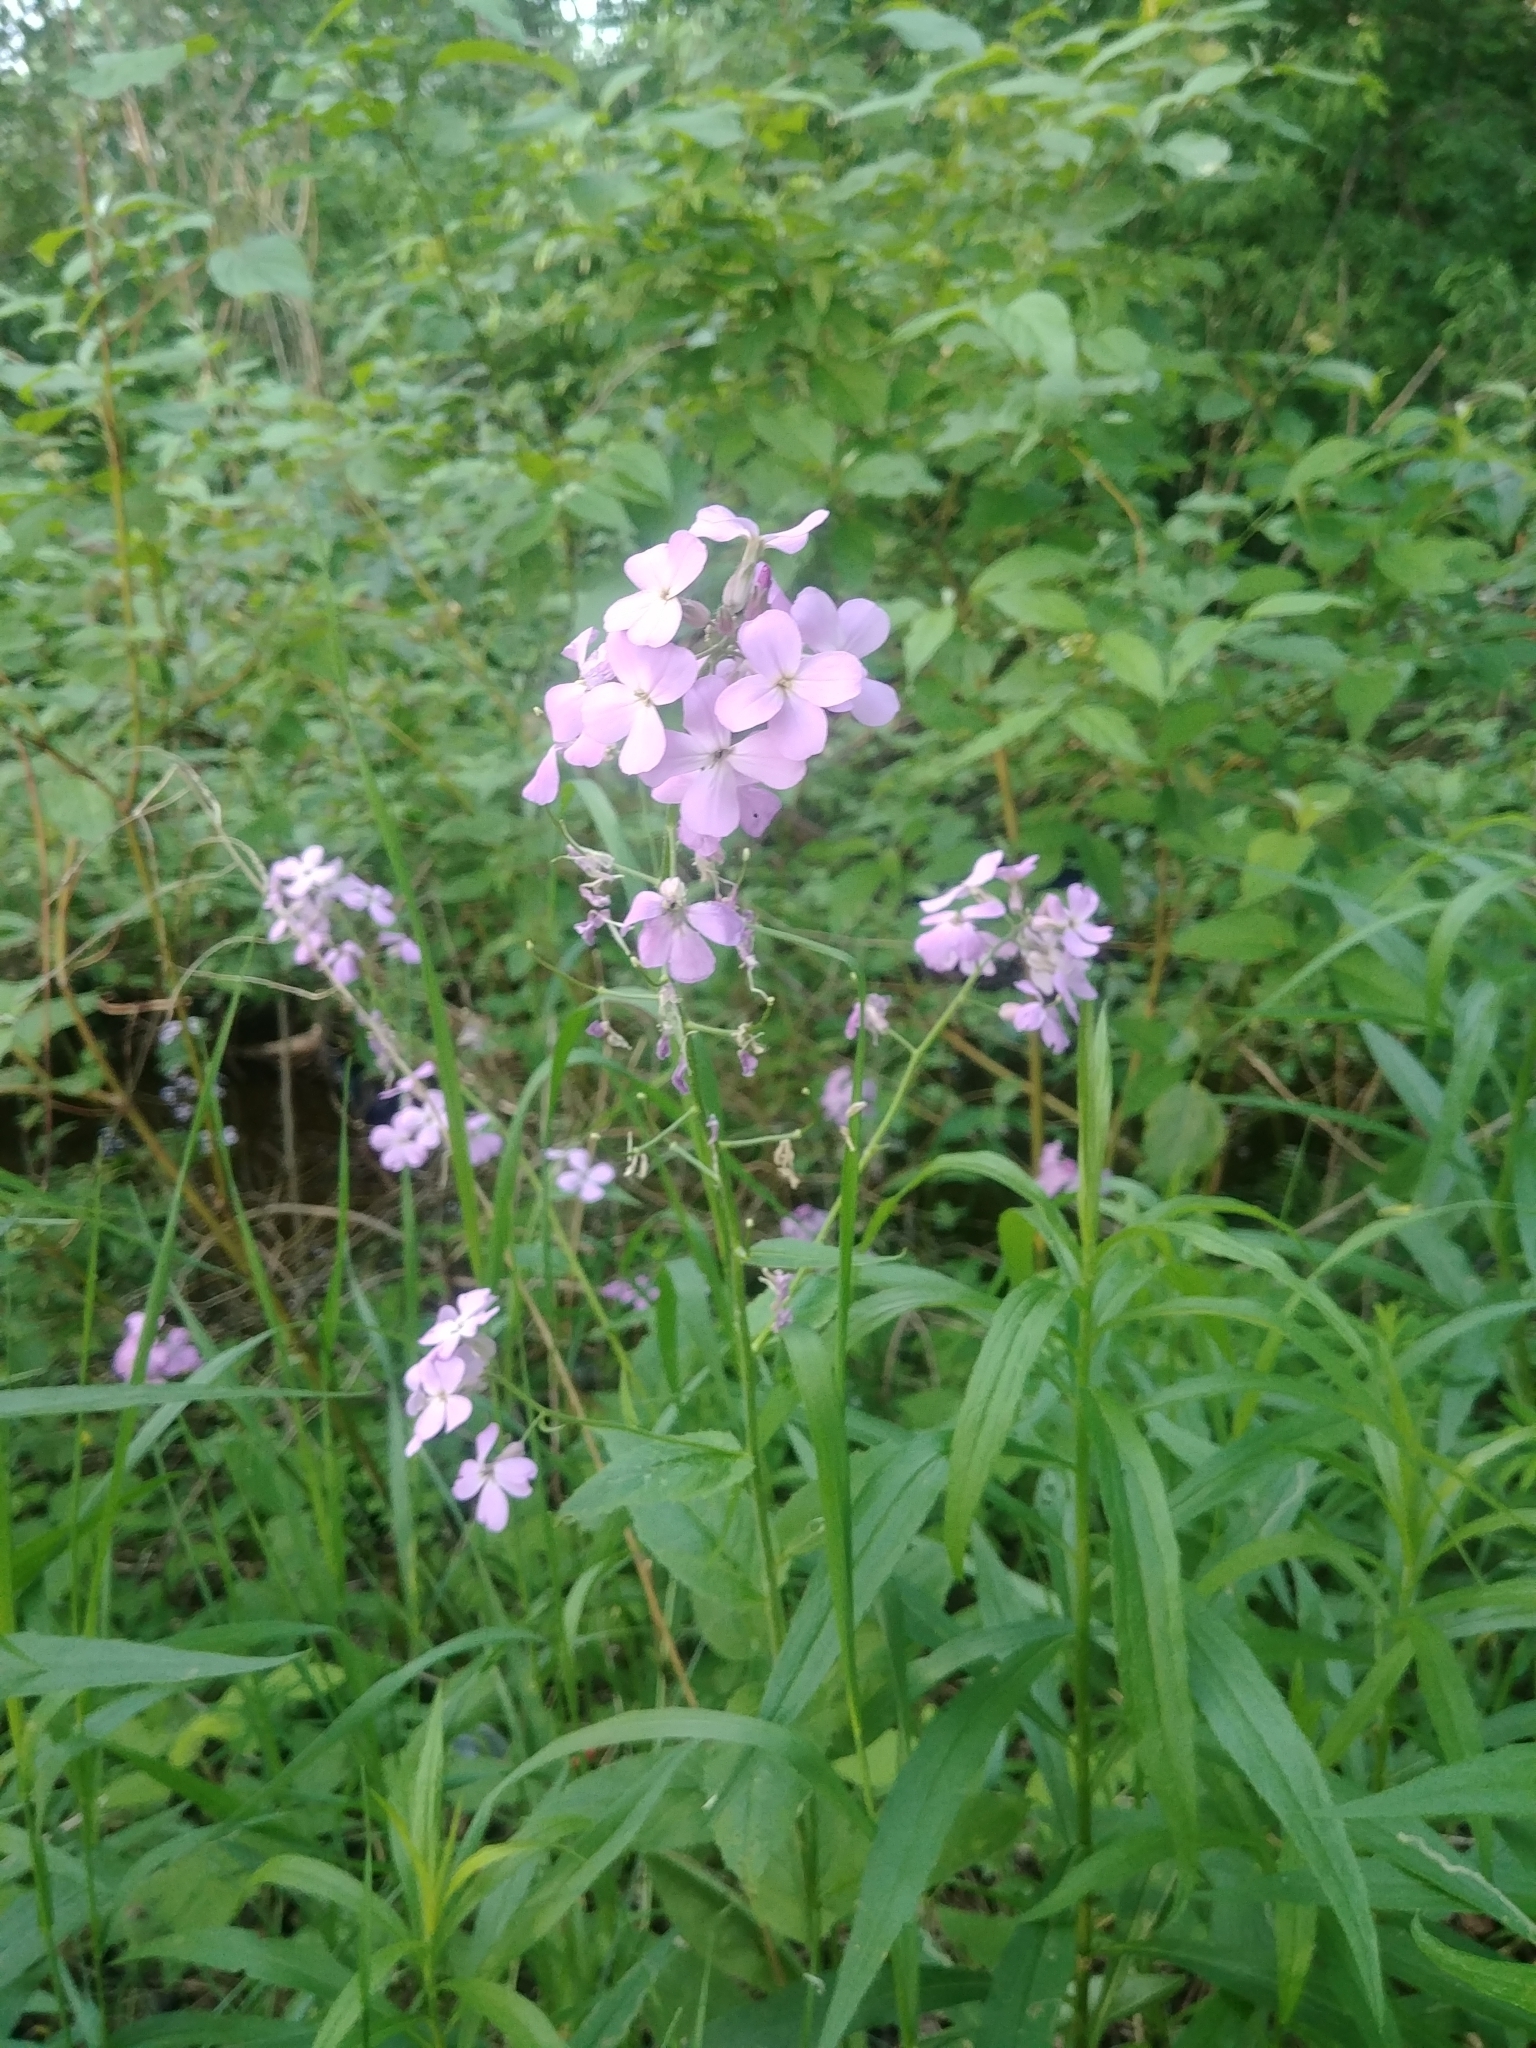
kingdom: Plantae
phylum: Tracheophyta
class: Magnoliopsida
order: Brassicales
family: Brassicaceae
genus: Hesperis
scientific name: Hesperis matronalis
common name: Dame's-violet
